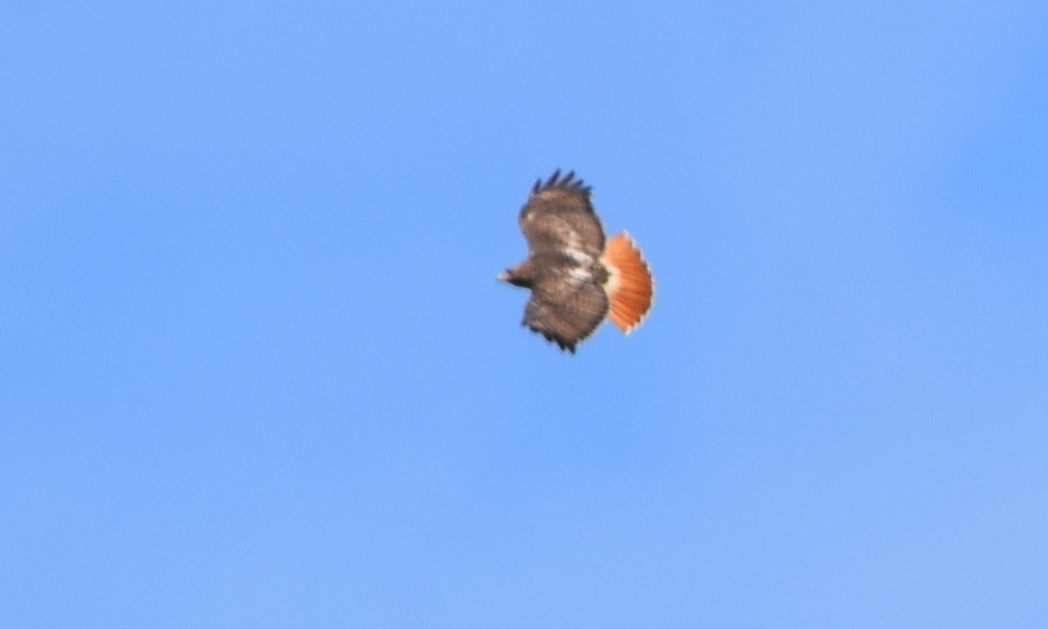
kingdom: Animalia
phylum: Chordata
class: Aves
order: Accipitriformes
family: Accipitridae
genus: Buteo
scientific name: Buteo jamaicensis
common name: Red-tailed hawk
